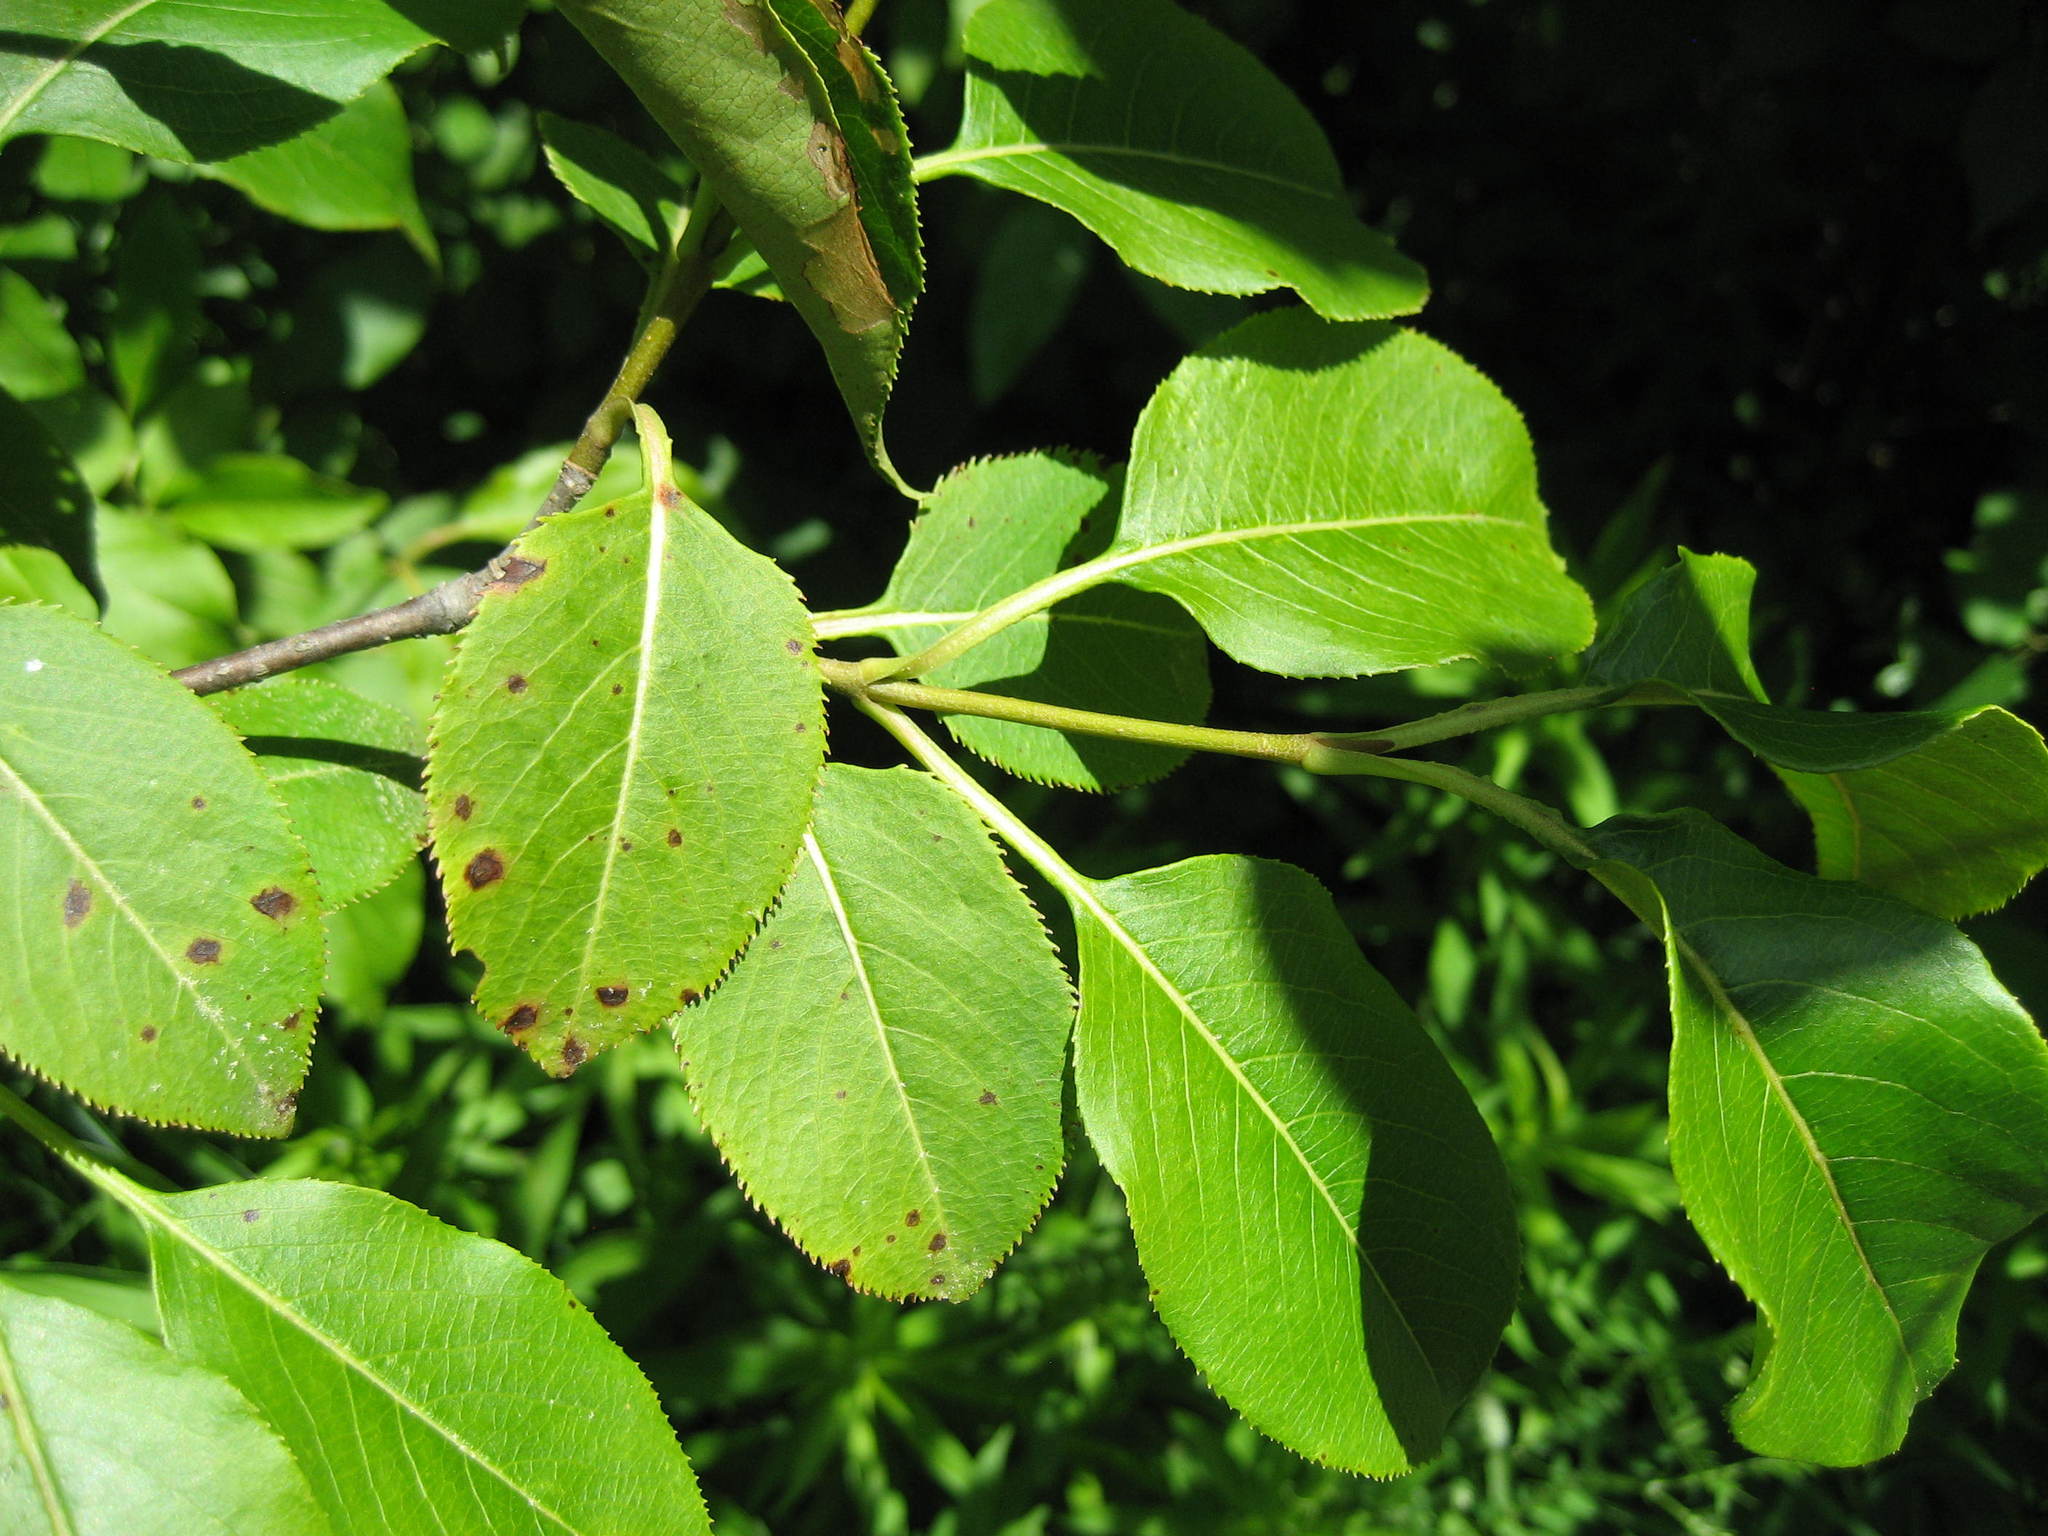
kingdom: Plantae
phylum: Tracheophyta
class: Magnoliopsida
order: Dipsacales
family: Viburnaceae
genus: Viburnum
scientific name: Viburnum lentago
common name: Black haw
